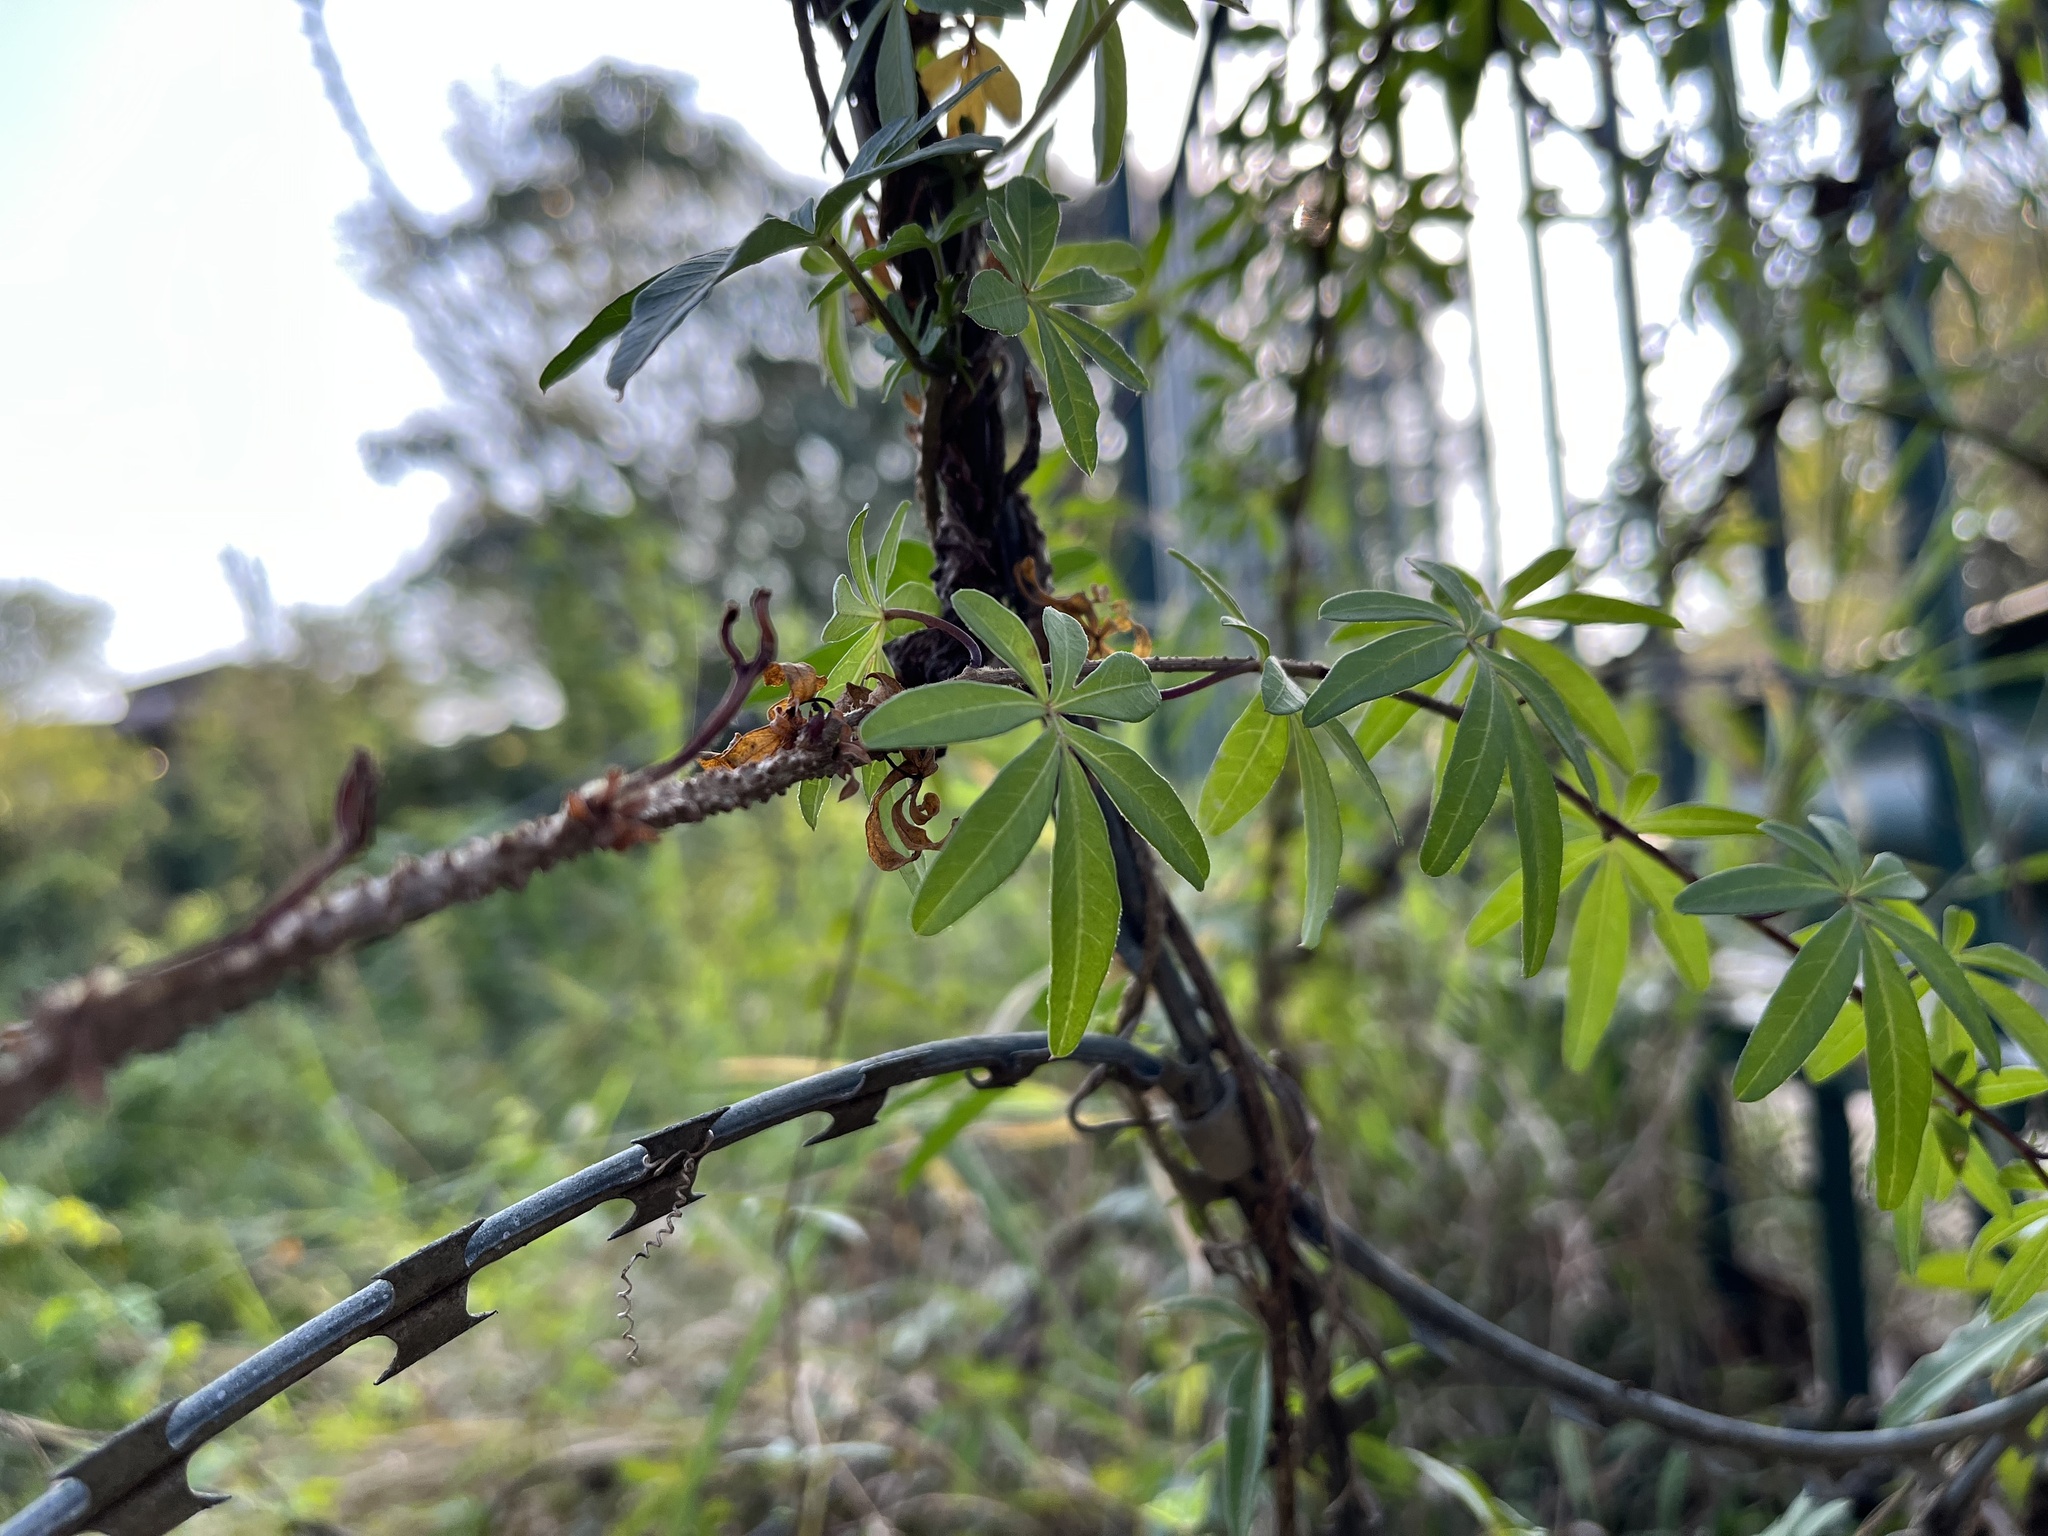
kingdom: Plantae
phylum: Tracheophyta
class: Magnoliopsida
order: Solanales
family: Convolvulaceae
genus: Ipomoea
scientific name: Ipomoea cairica
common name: Mile a minute vine
